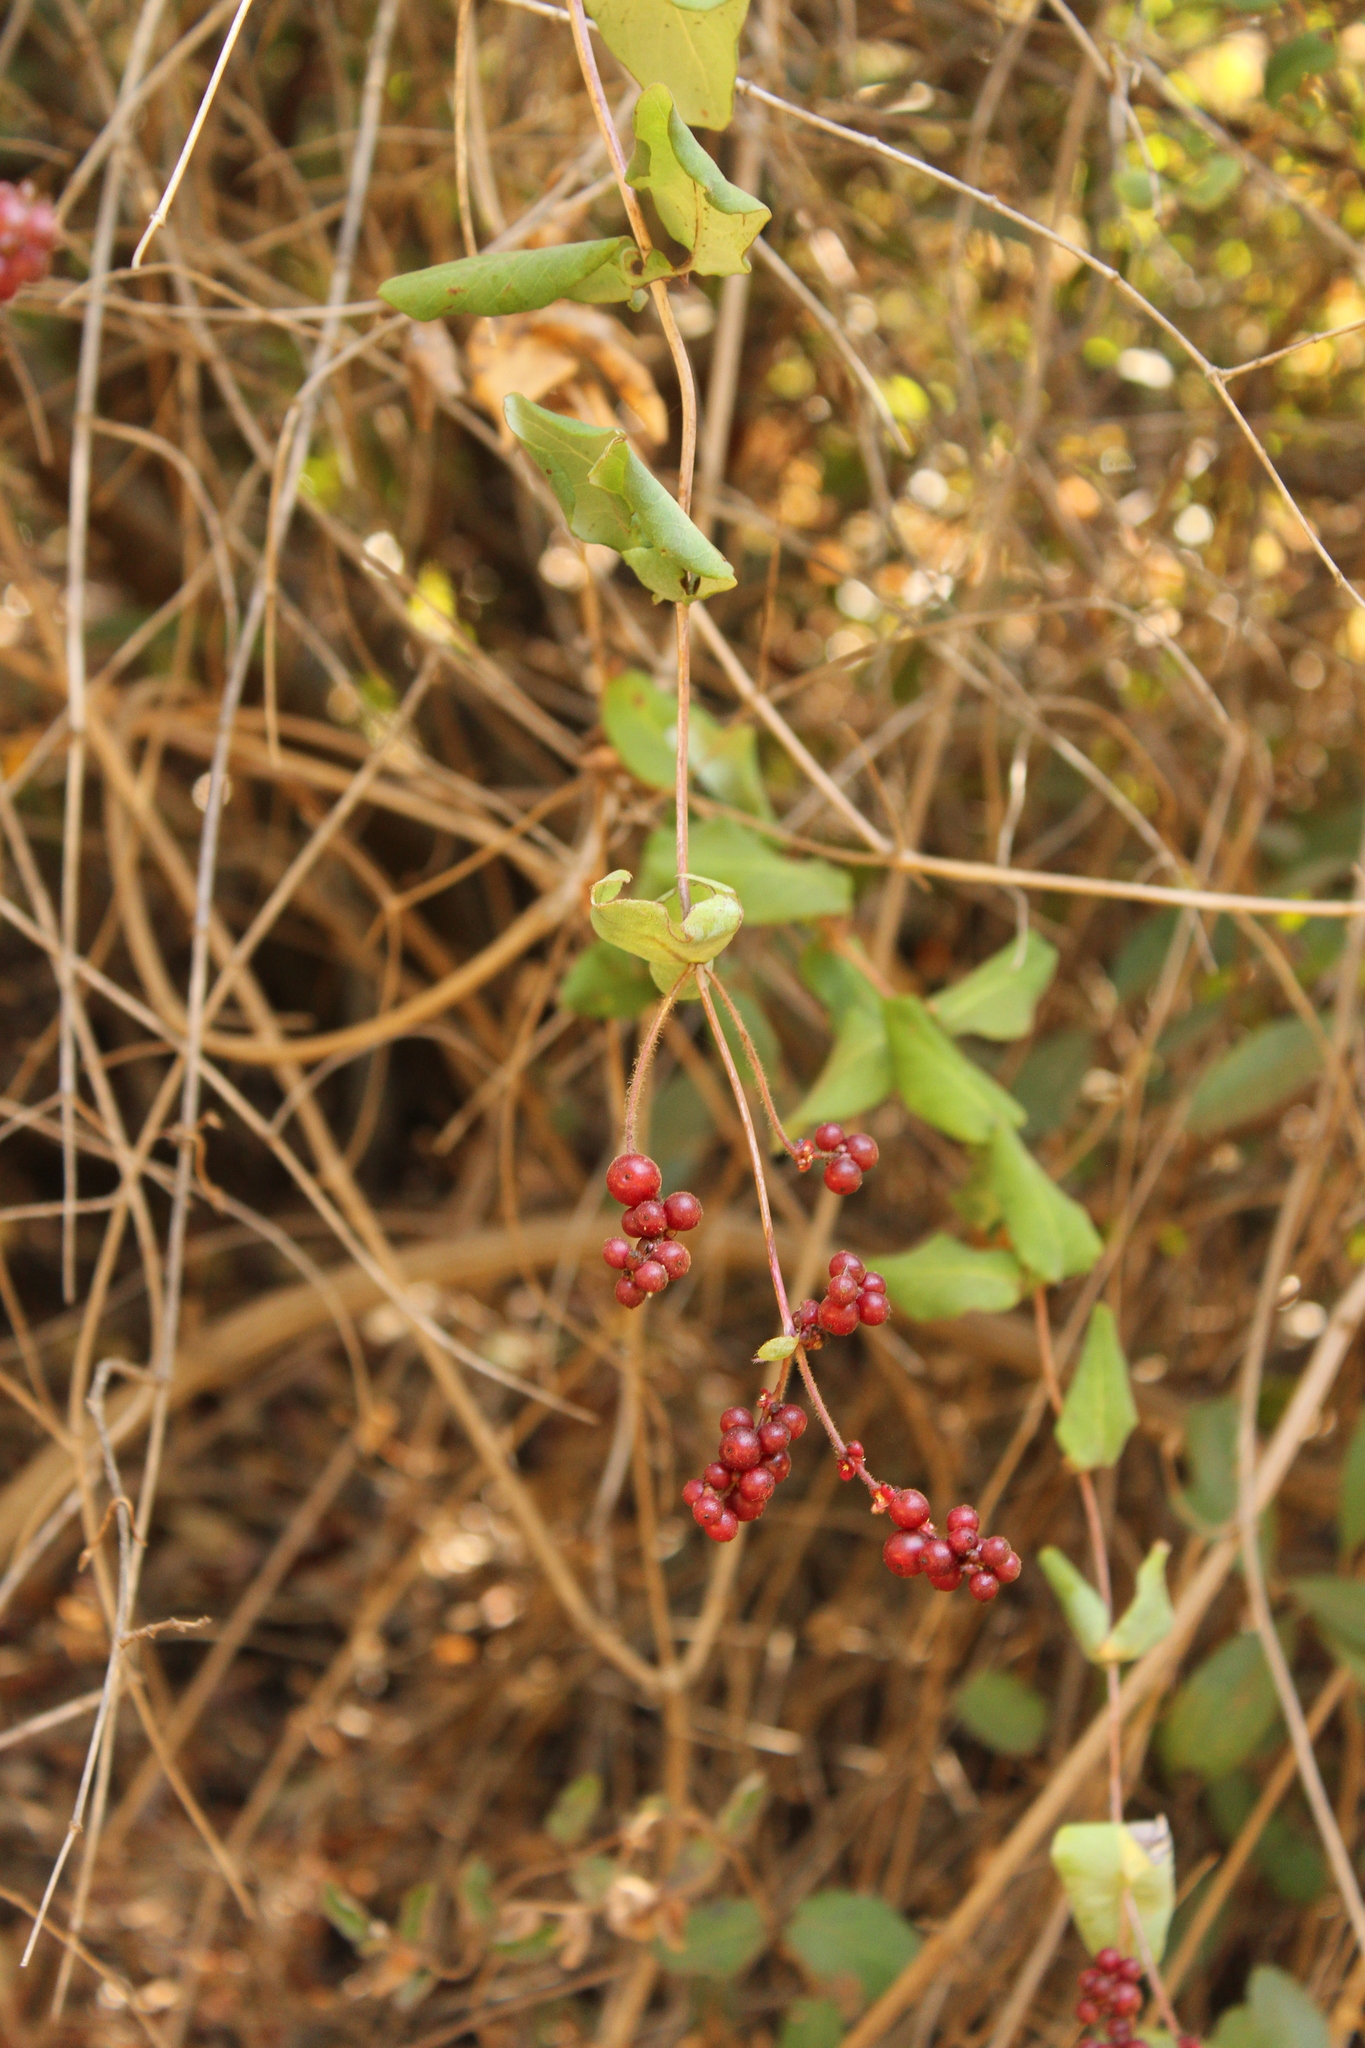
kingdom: Plantae
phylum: Tracheophyta
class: Magnoliopsida
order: Dipsacales
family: Caprifoliaceae
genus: Lonicera
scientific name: Lonicera hispidula
